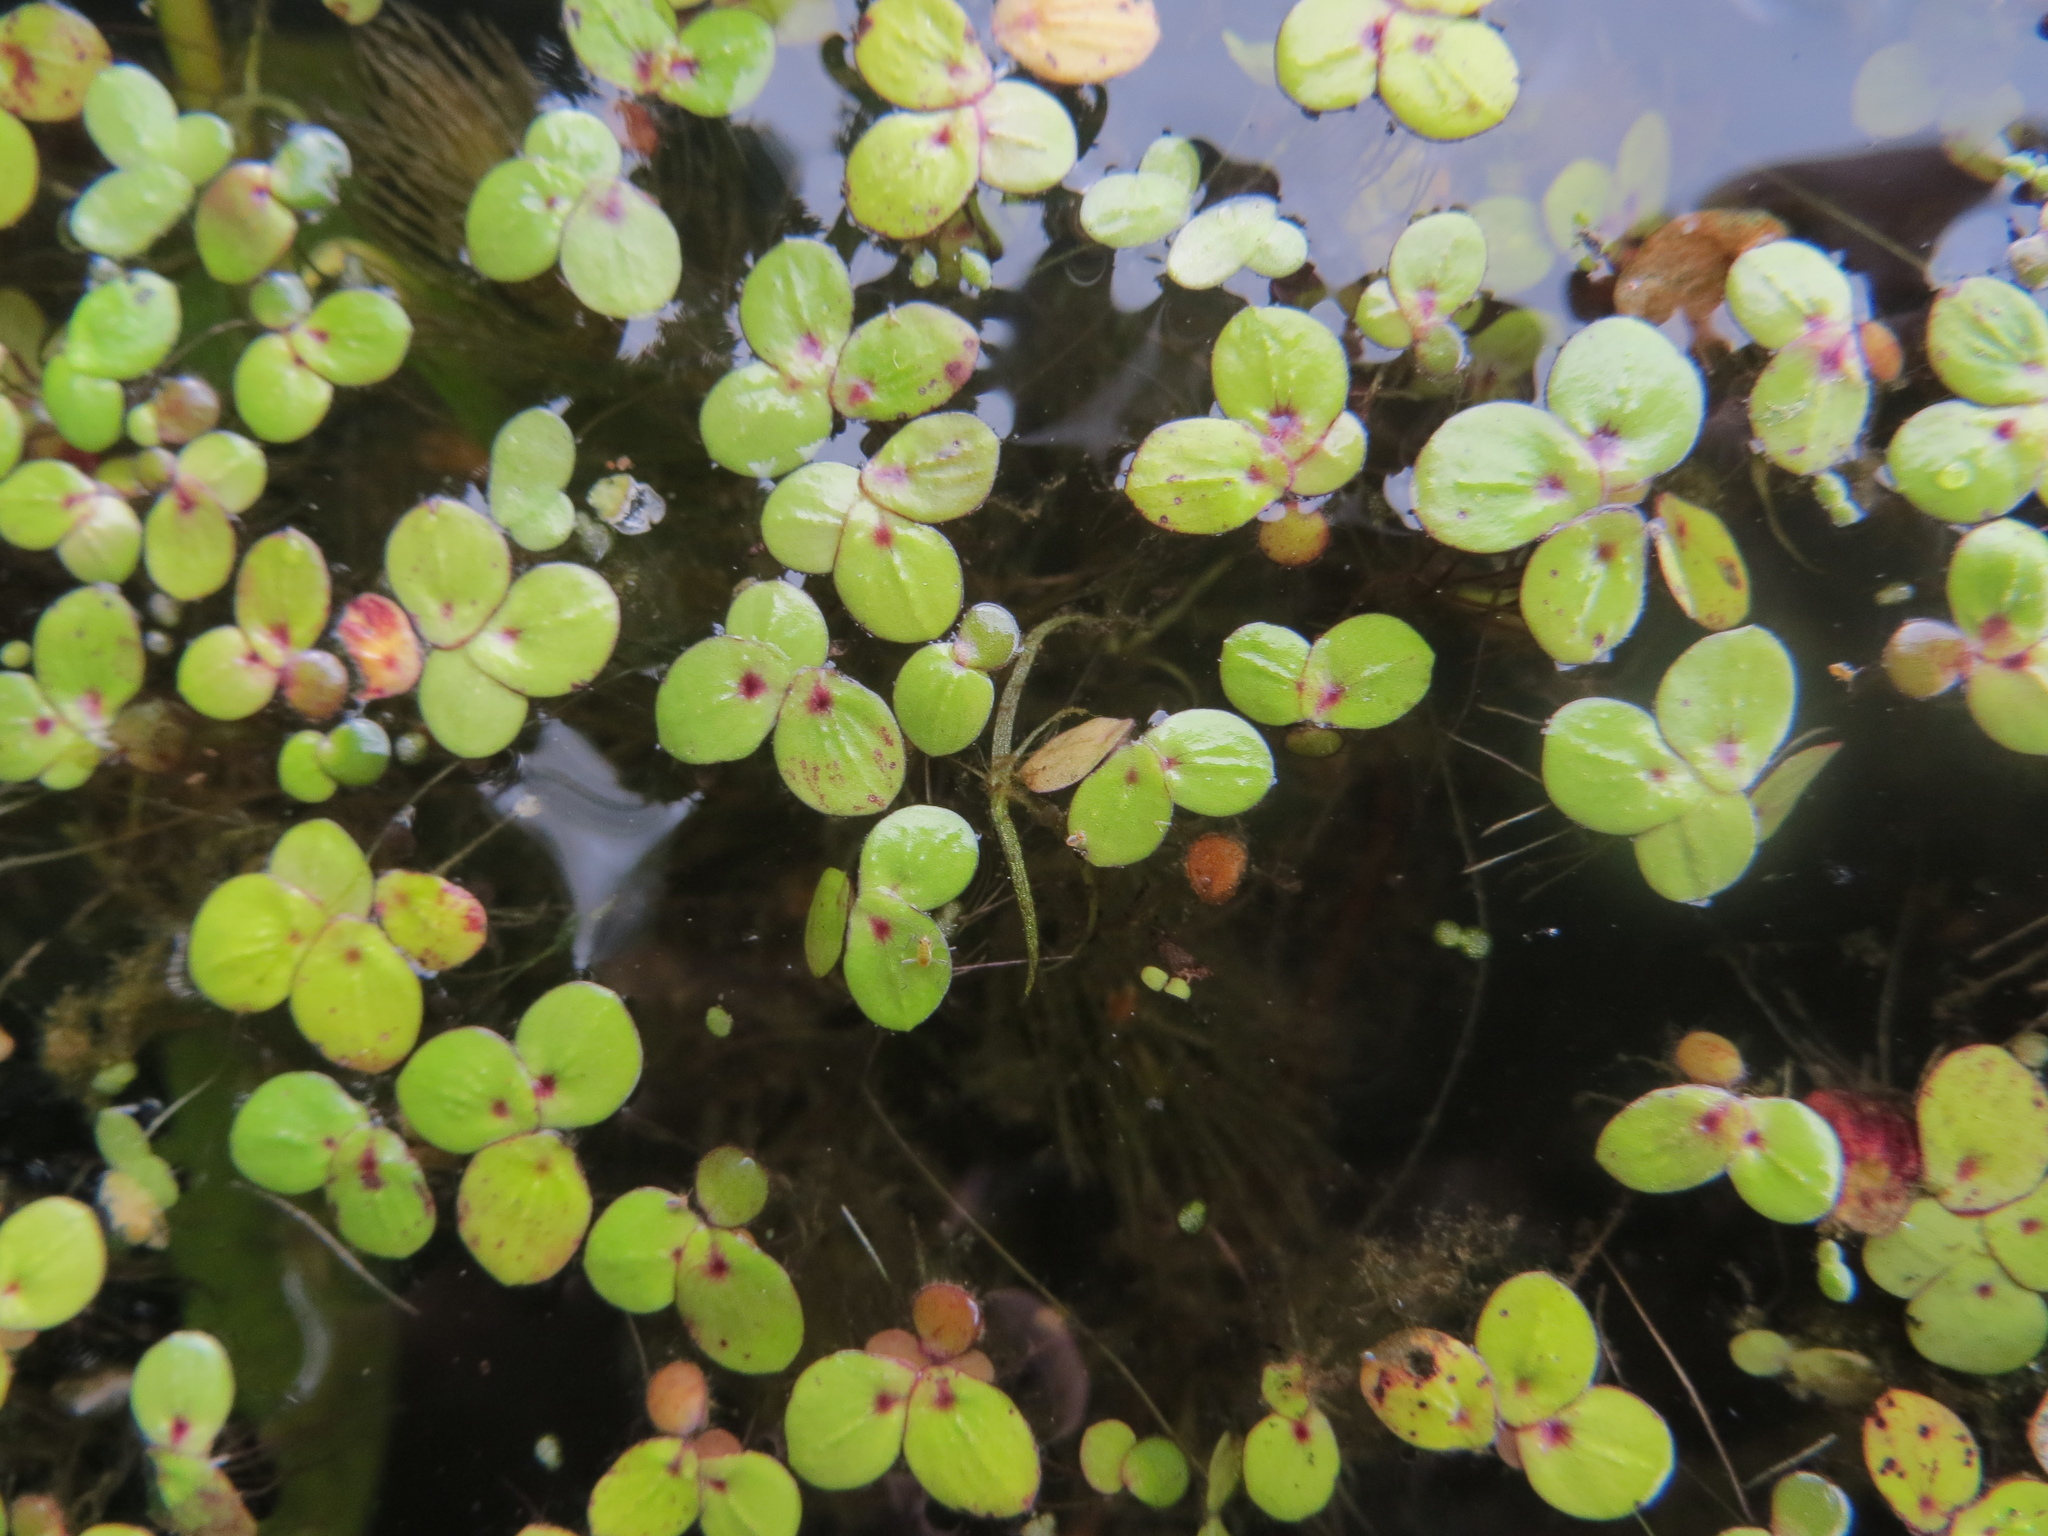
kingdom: Plantae
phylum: Tracheophyta
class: Liliopsida
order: Alismatales
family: Araceae
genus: Wolffiella
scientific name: Wolffiella gladiata
